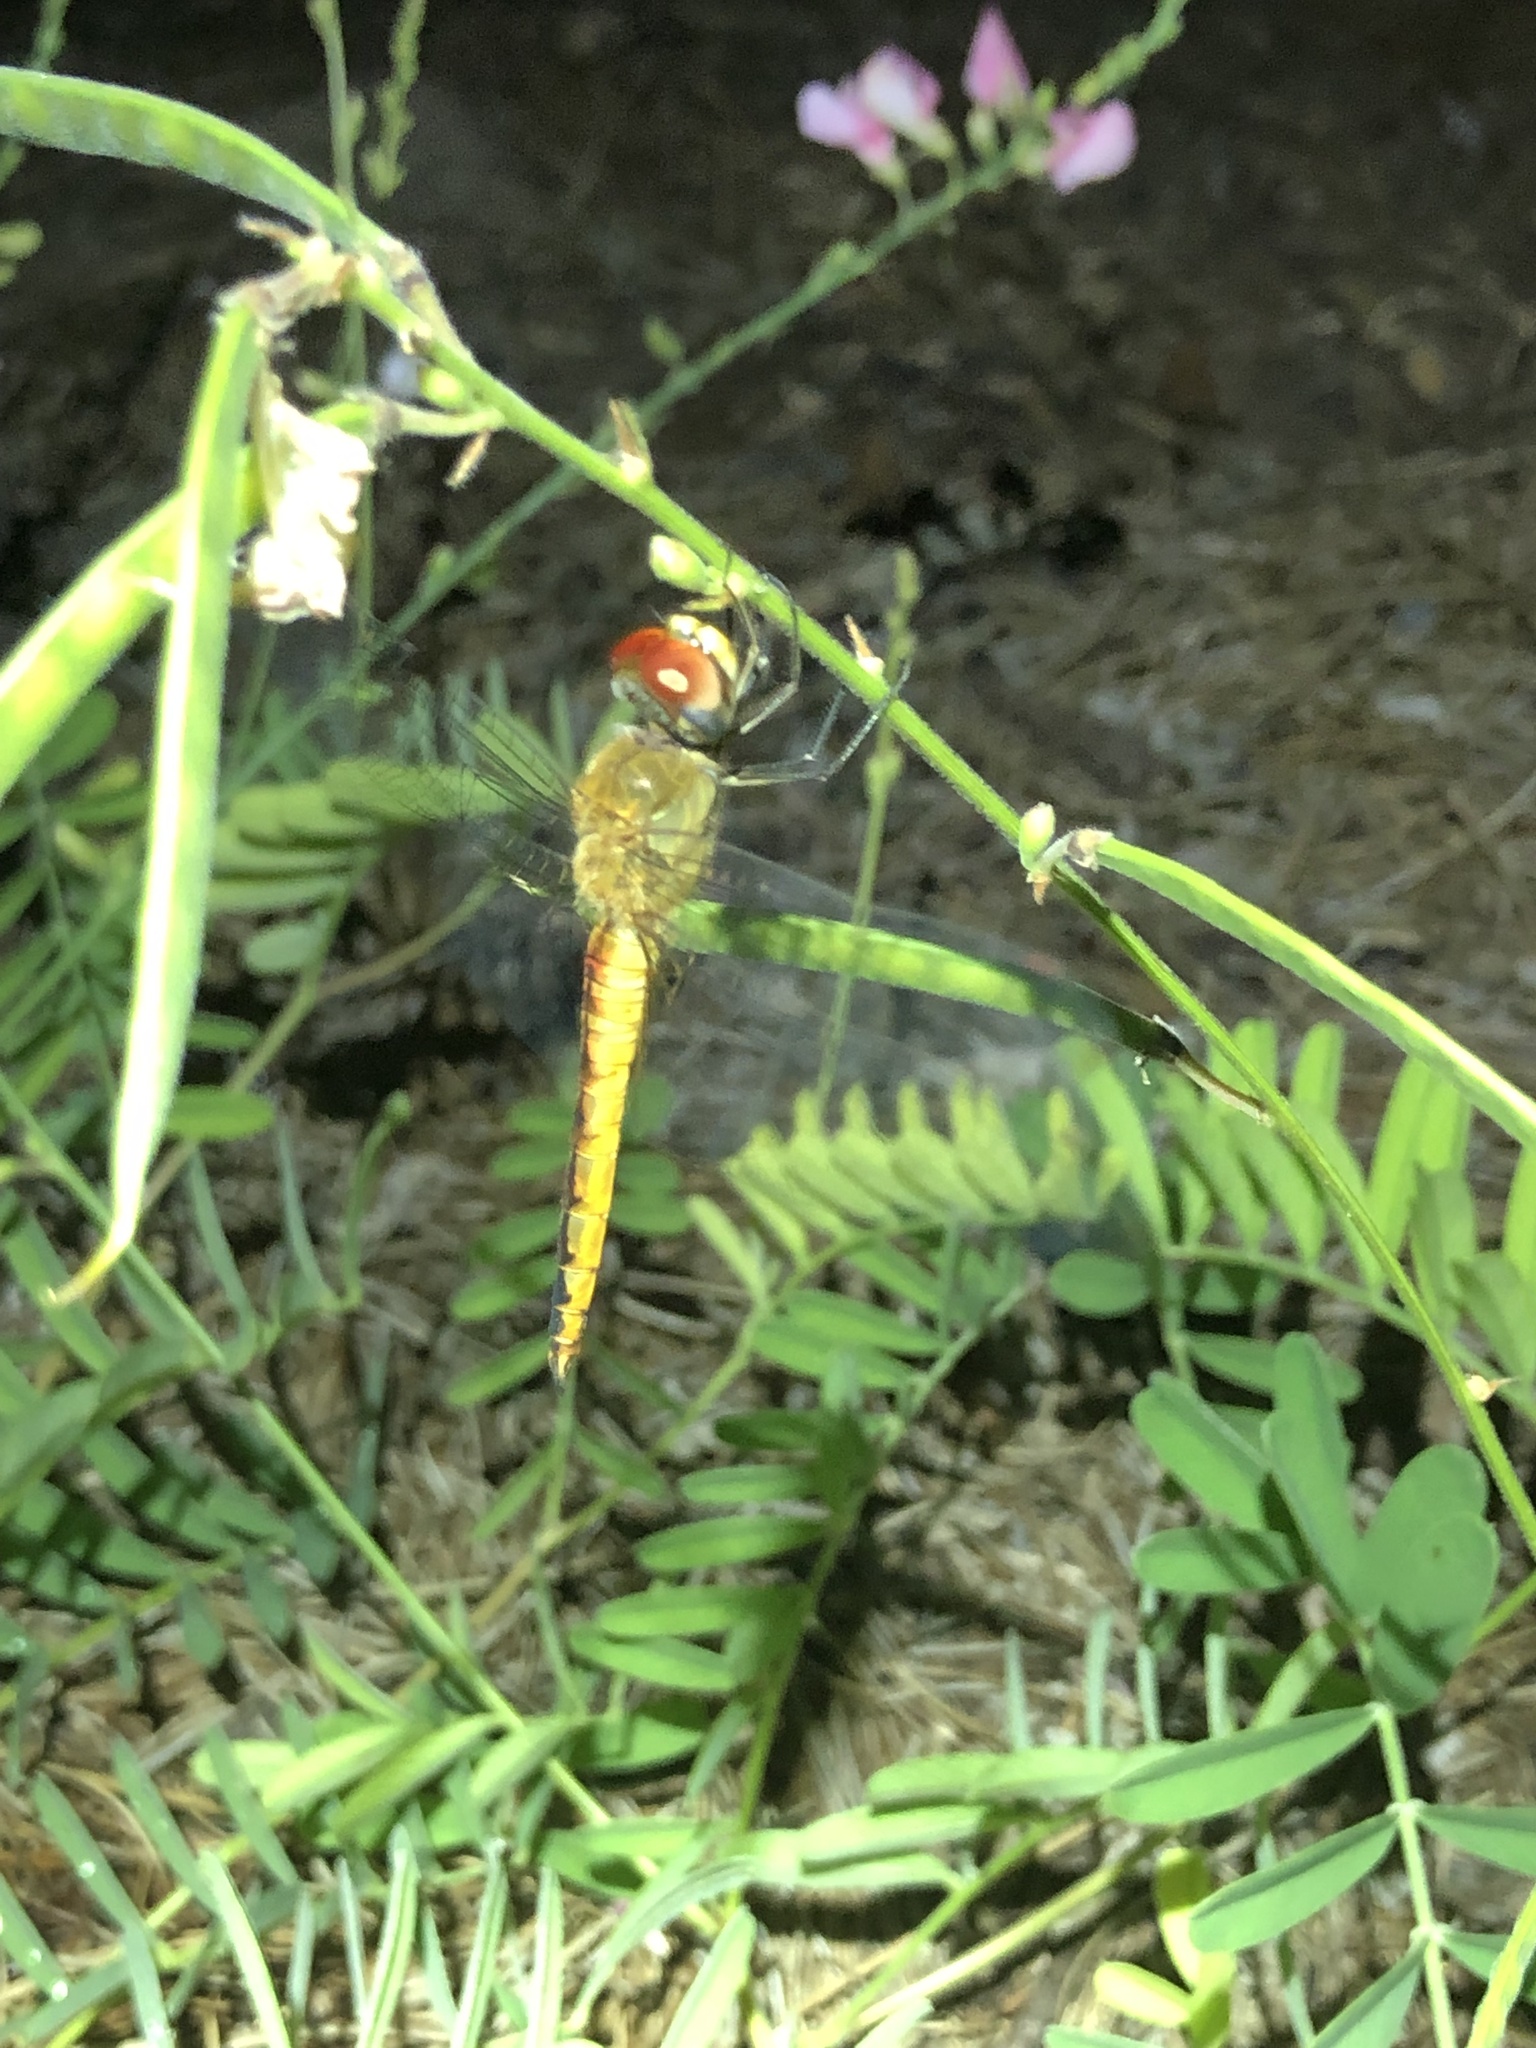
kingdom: Animalia
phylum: Arthropoda
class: Insecta
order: Odonata
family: Libellulidae
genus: Pantala
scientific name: Pantala flavescens
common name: Wandering glider
